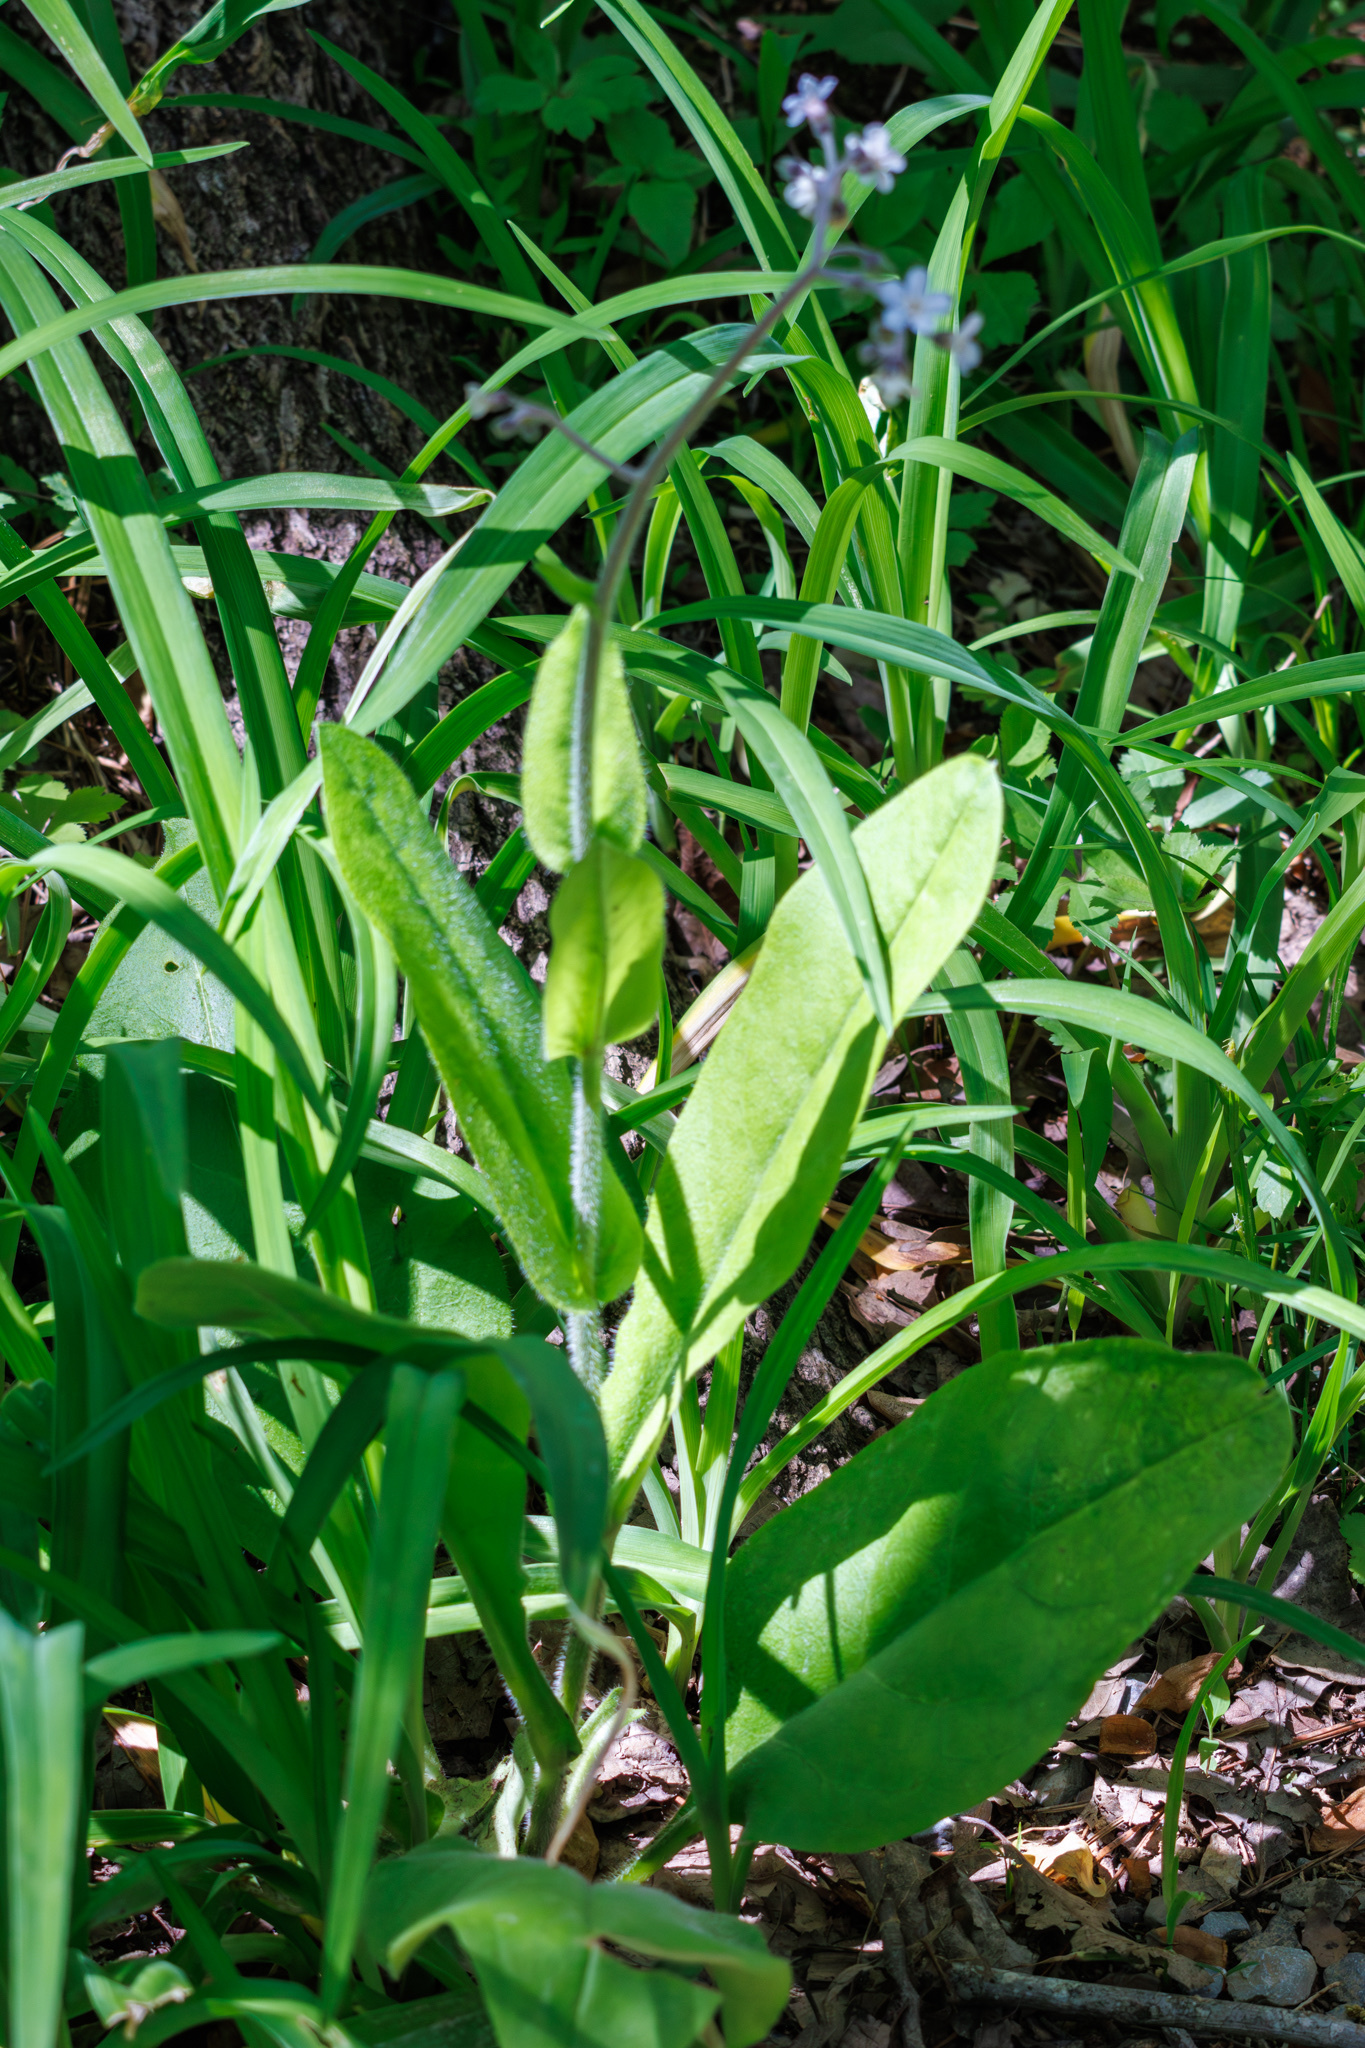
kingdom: Plantae
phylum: Tracheophyta
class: Magnoliopsida
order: Boraginales
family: Boraginaceae
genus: Andersonglossum
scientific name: Andersonglossum virginianum
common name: Wild comfrey
